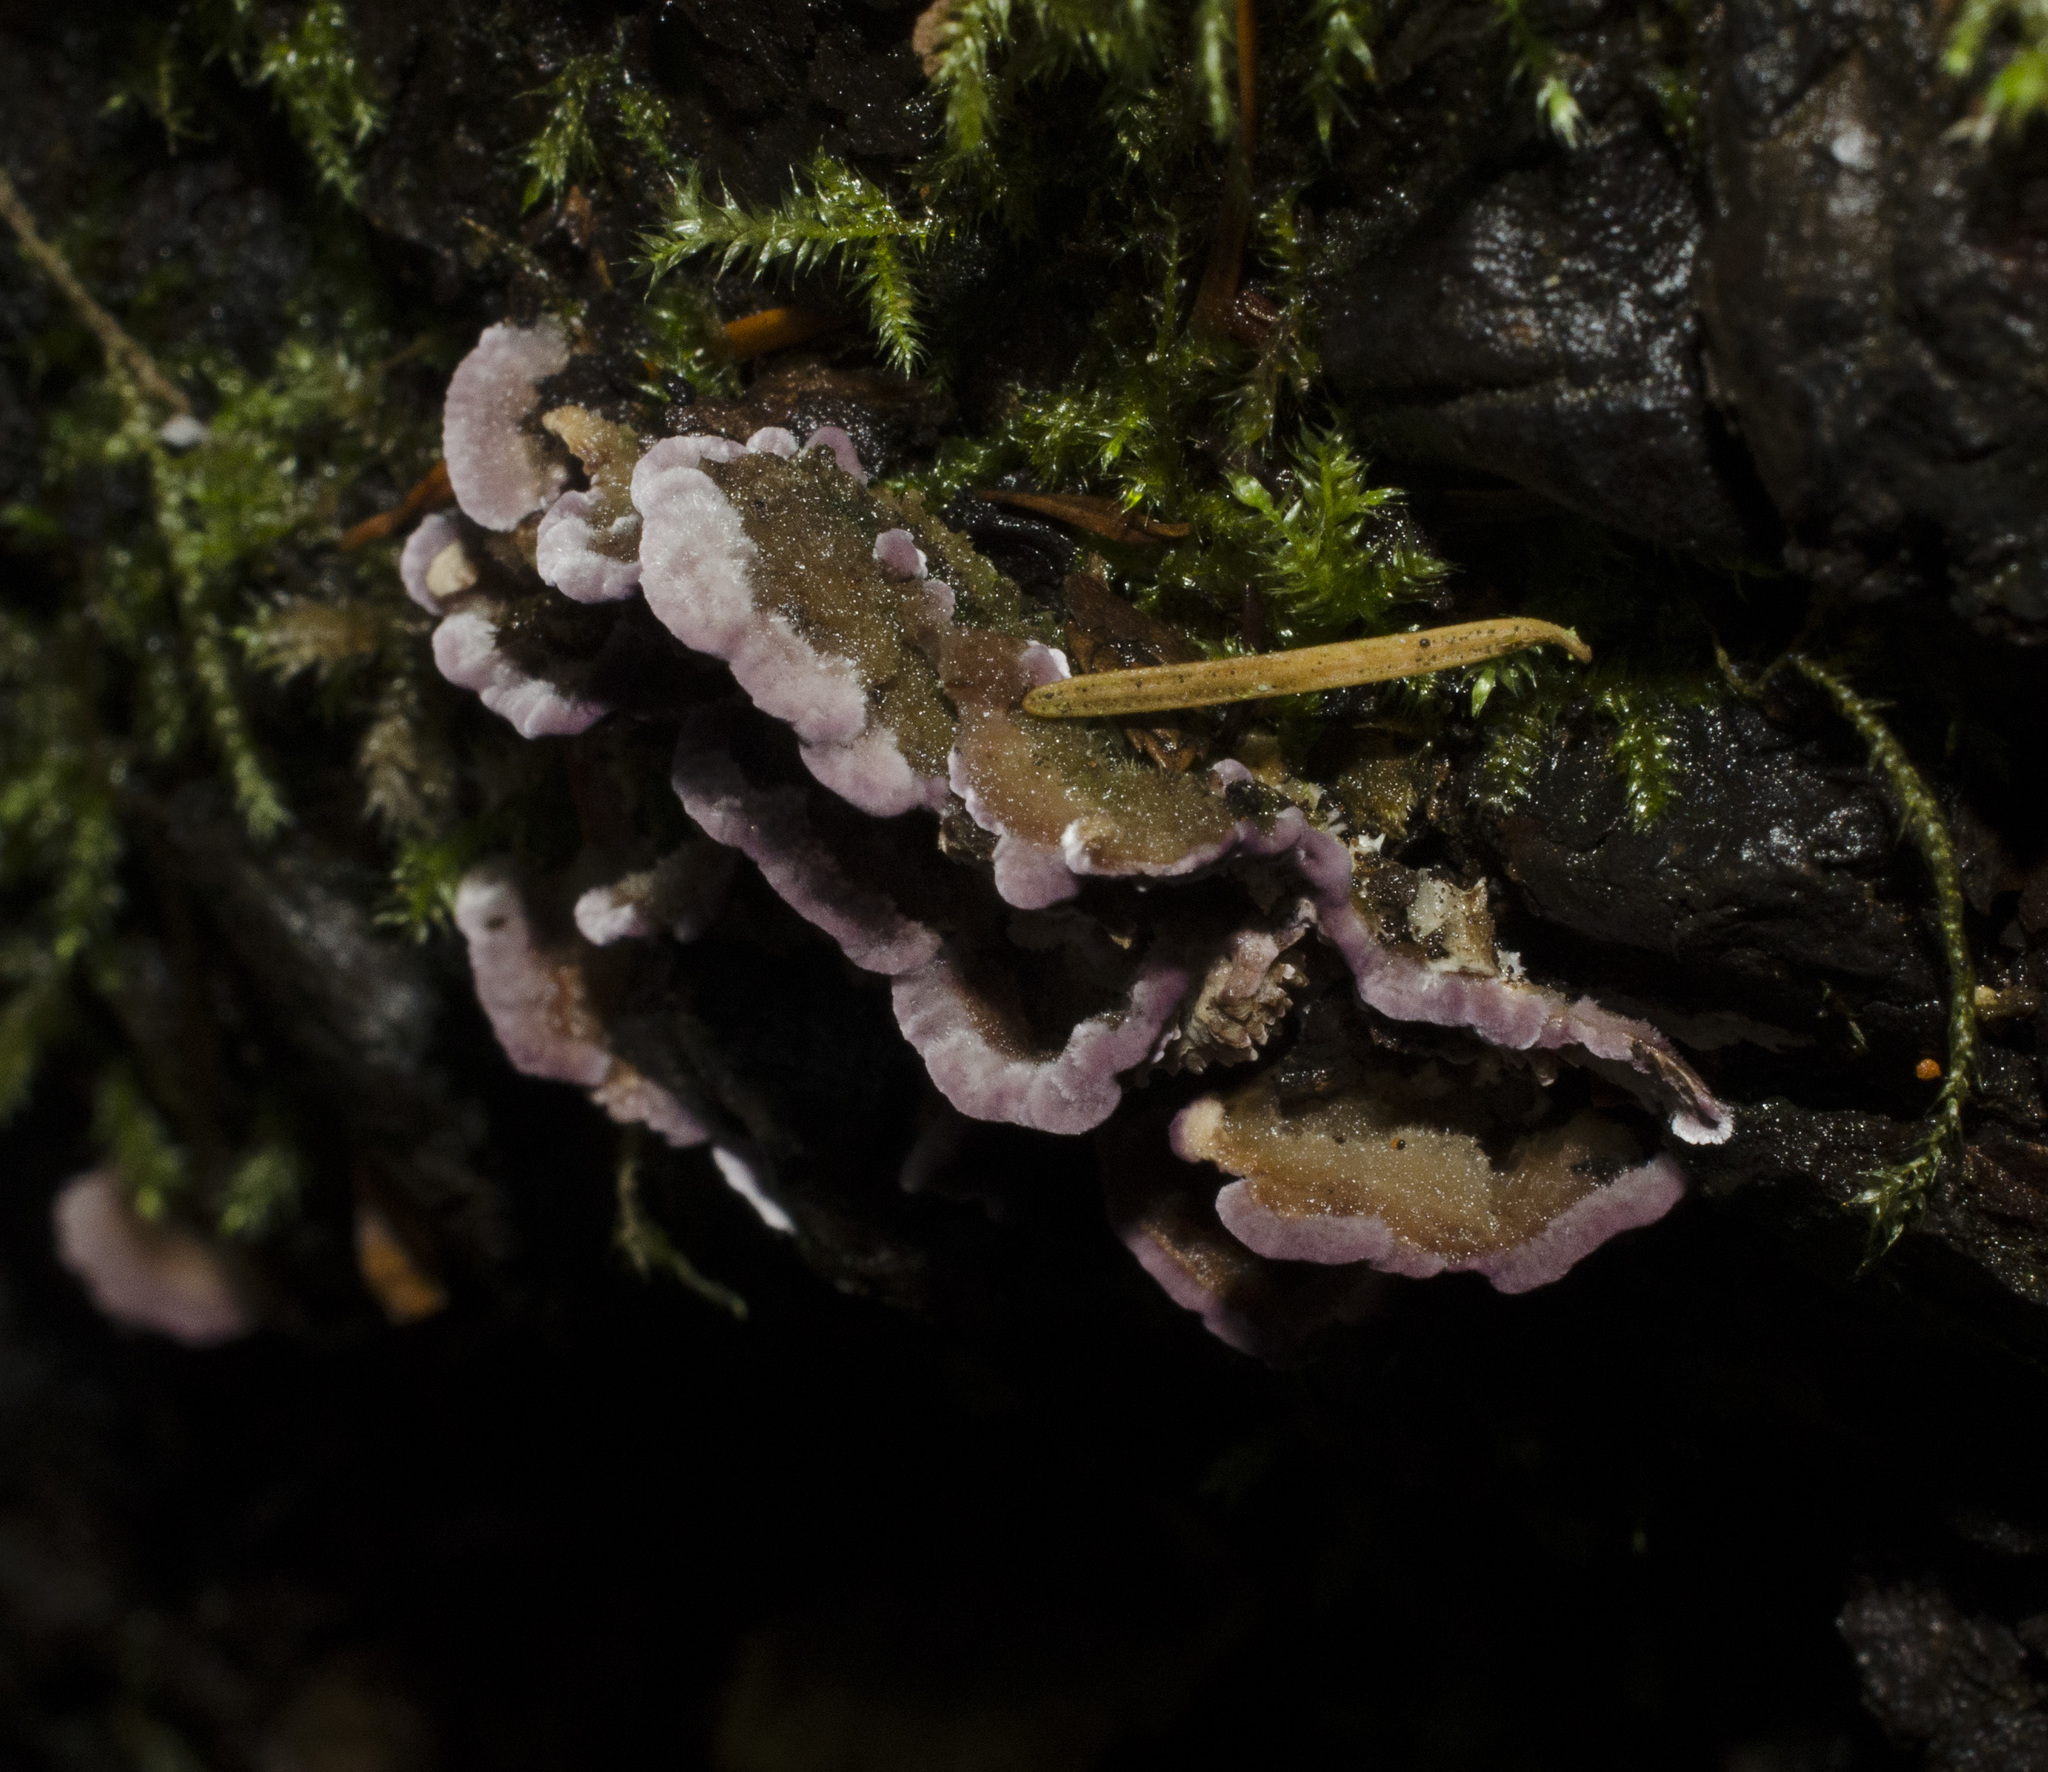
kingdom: Fungi
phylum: Basidiomycota
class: Agaricomycetes
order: Hymenochaetales
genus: Trichaptum
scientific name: Trichaptum abietinum
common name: Purplepore bracket
